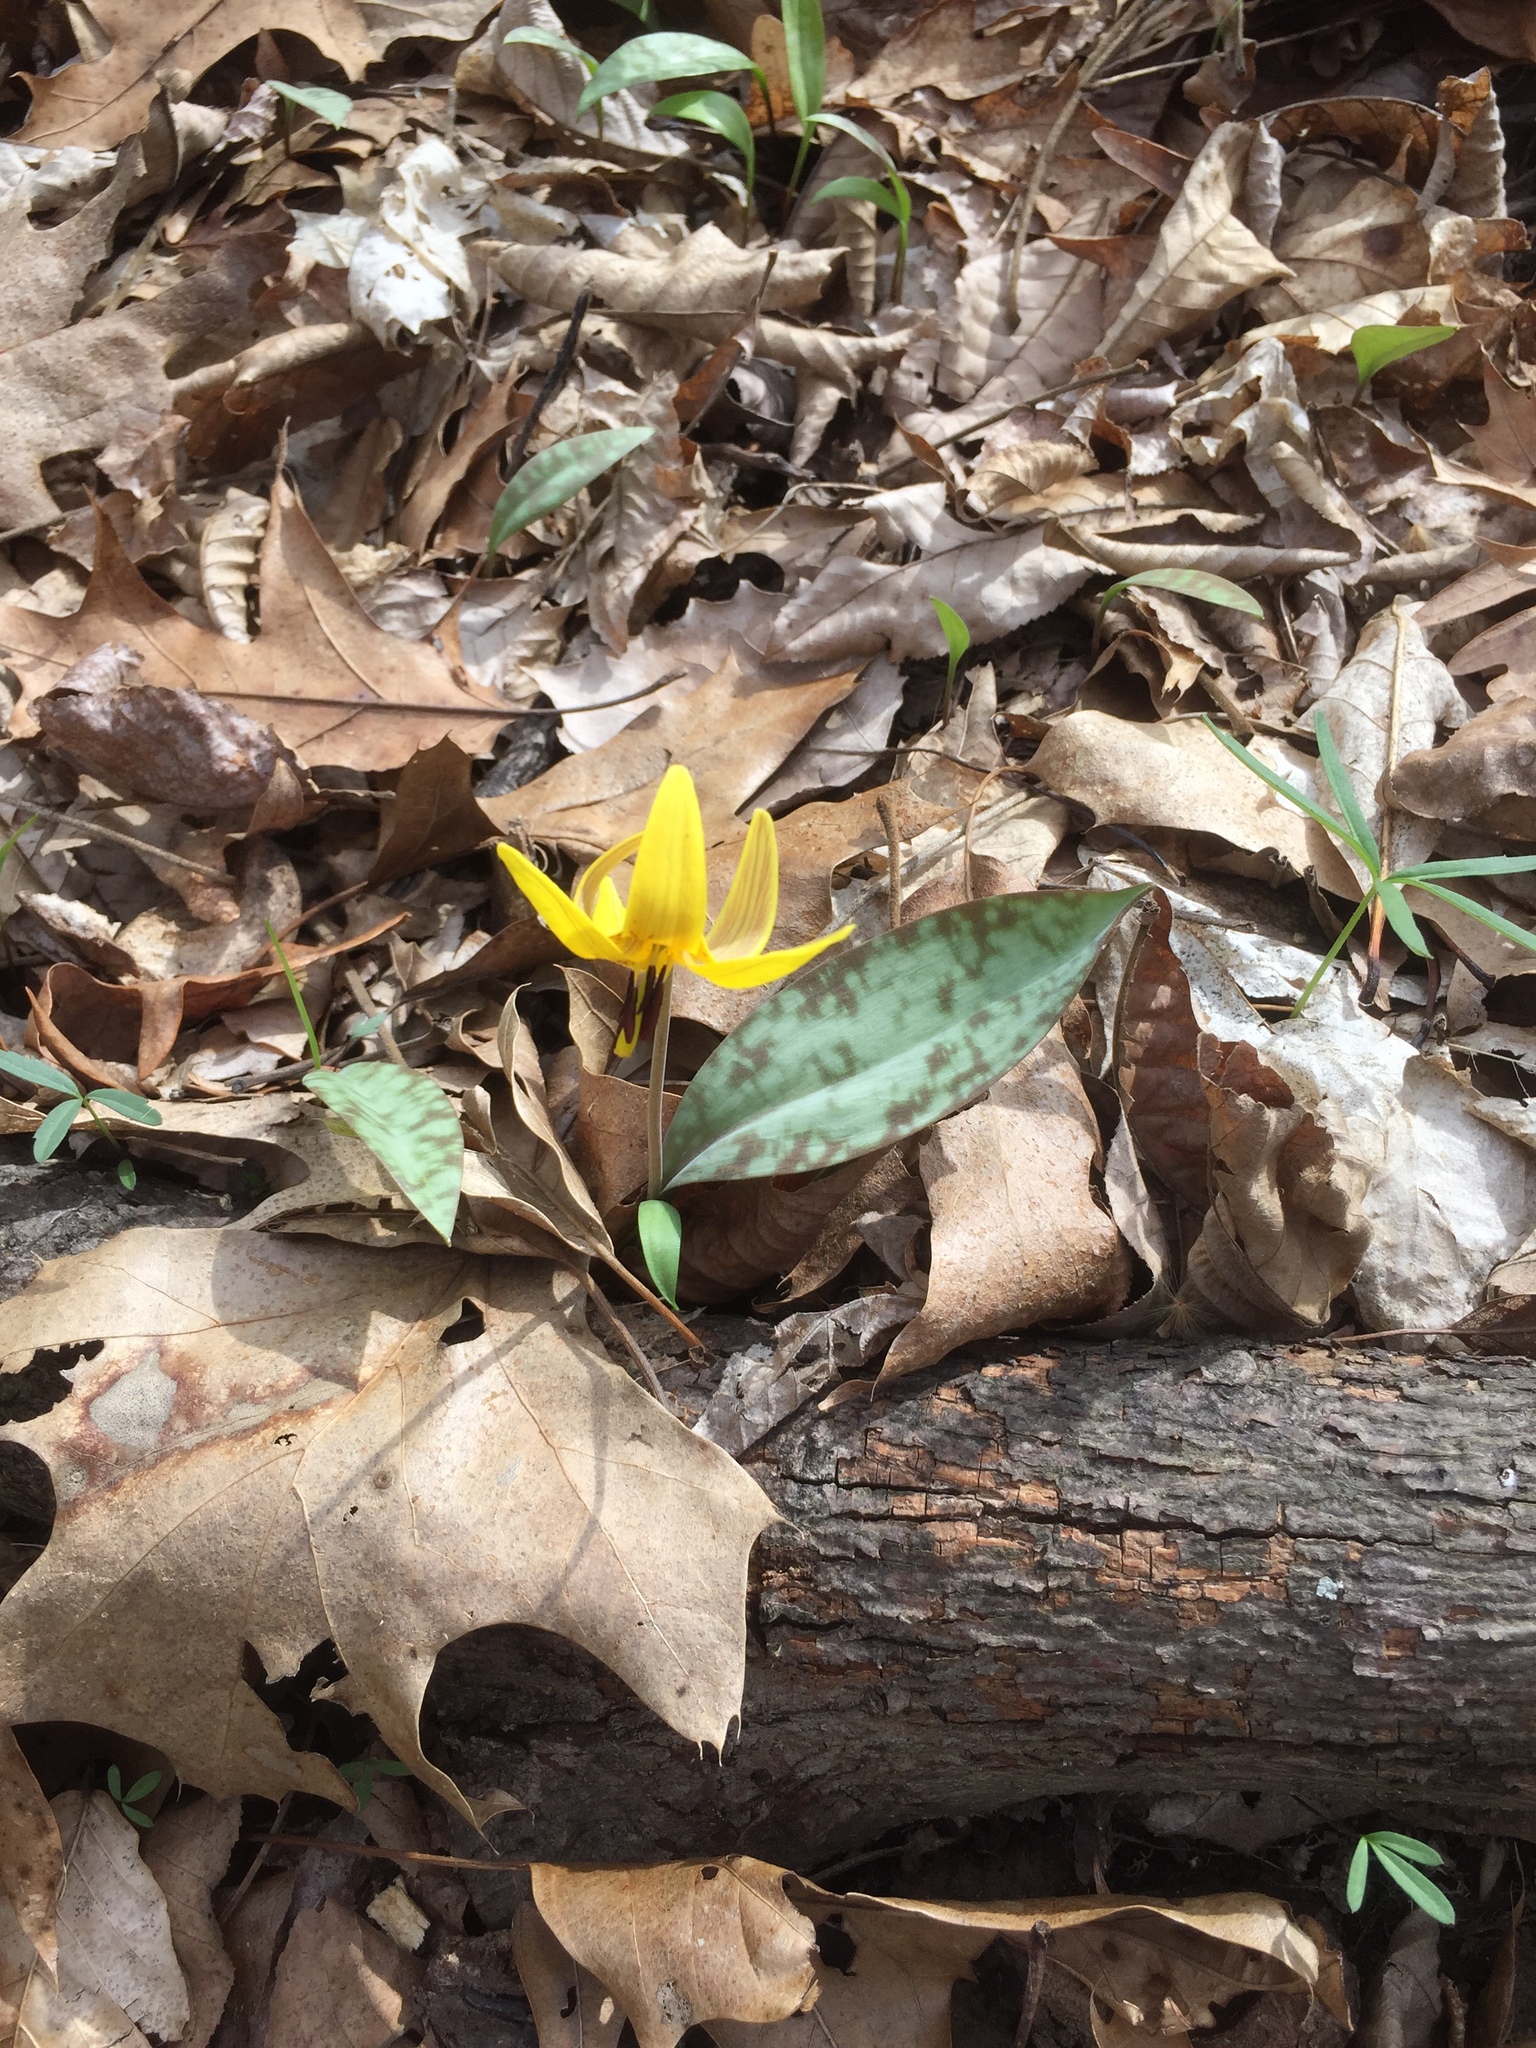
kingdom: Plantae
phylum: Tracheophyta
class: Liliopsida
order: Liliales
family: Liliaceae
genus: Erythronium
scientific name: Erythronium americanum
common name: Yellow adder's-tongue
